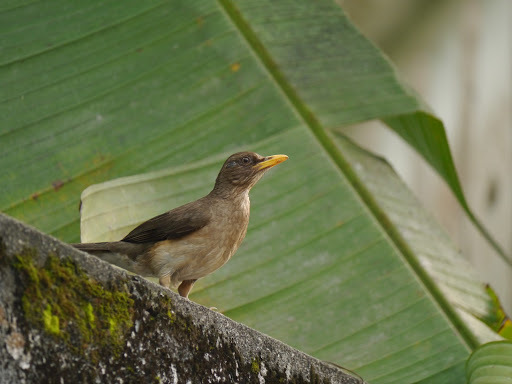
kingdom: Animalia
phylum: Chordata
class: Aves
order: Passeriformes
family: Turdidae
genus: Turdus
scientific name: Turdus pelios
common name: African thrush
